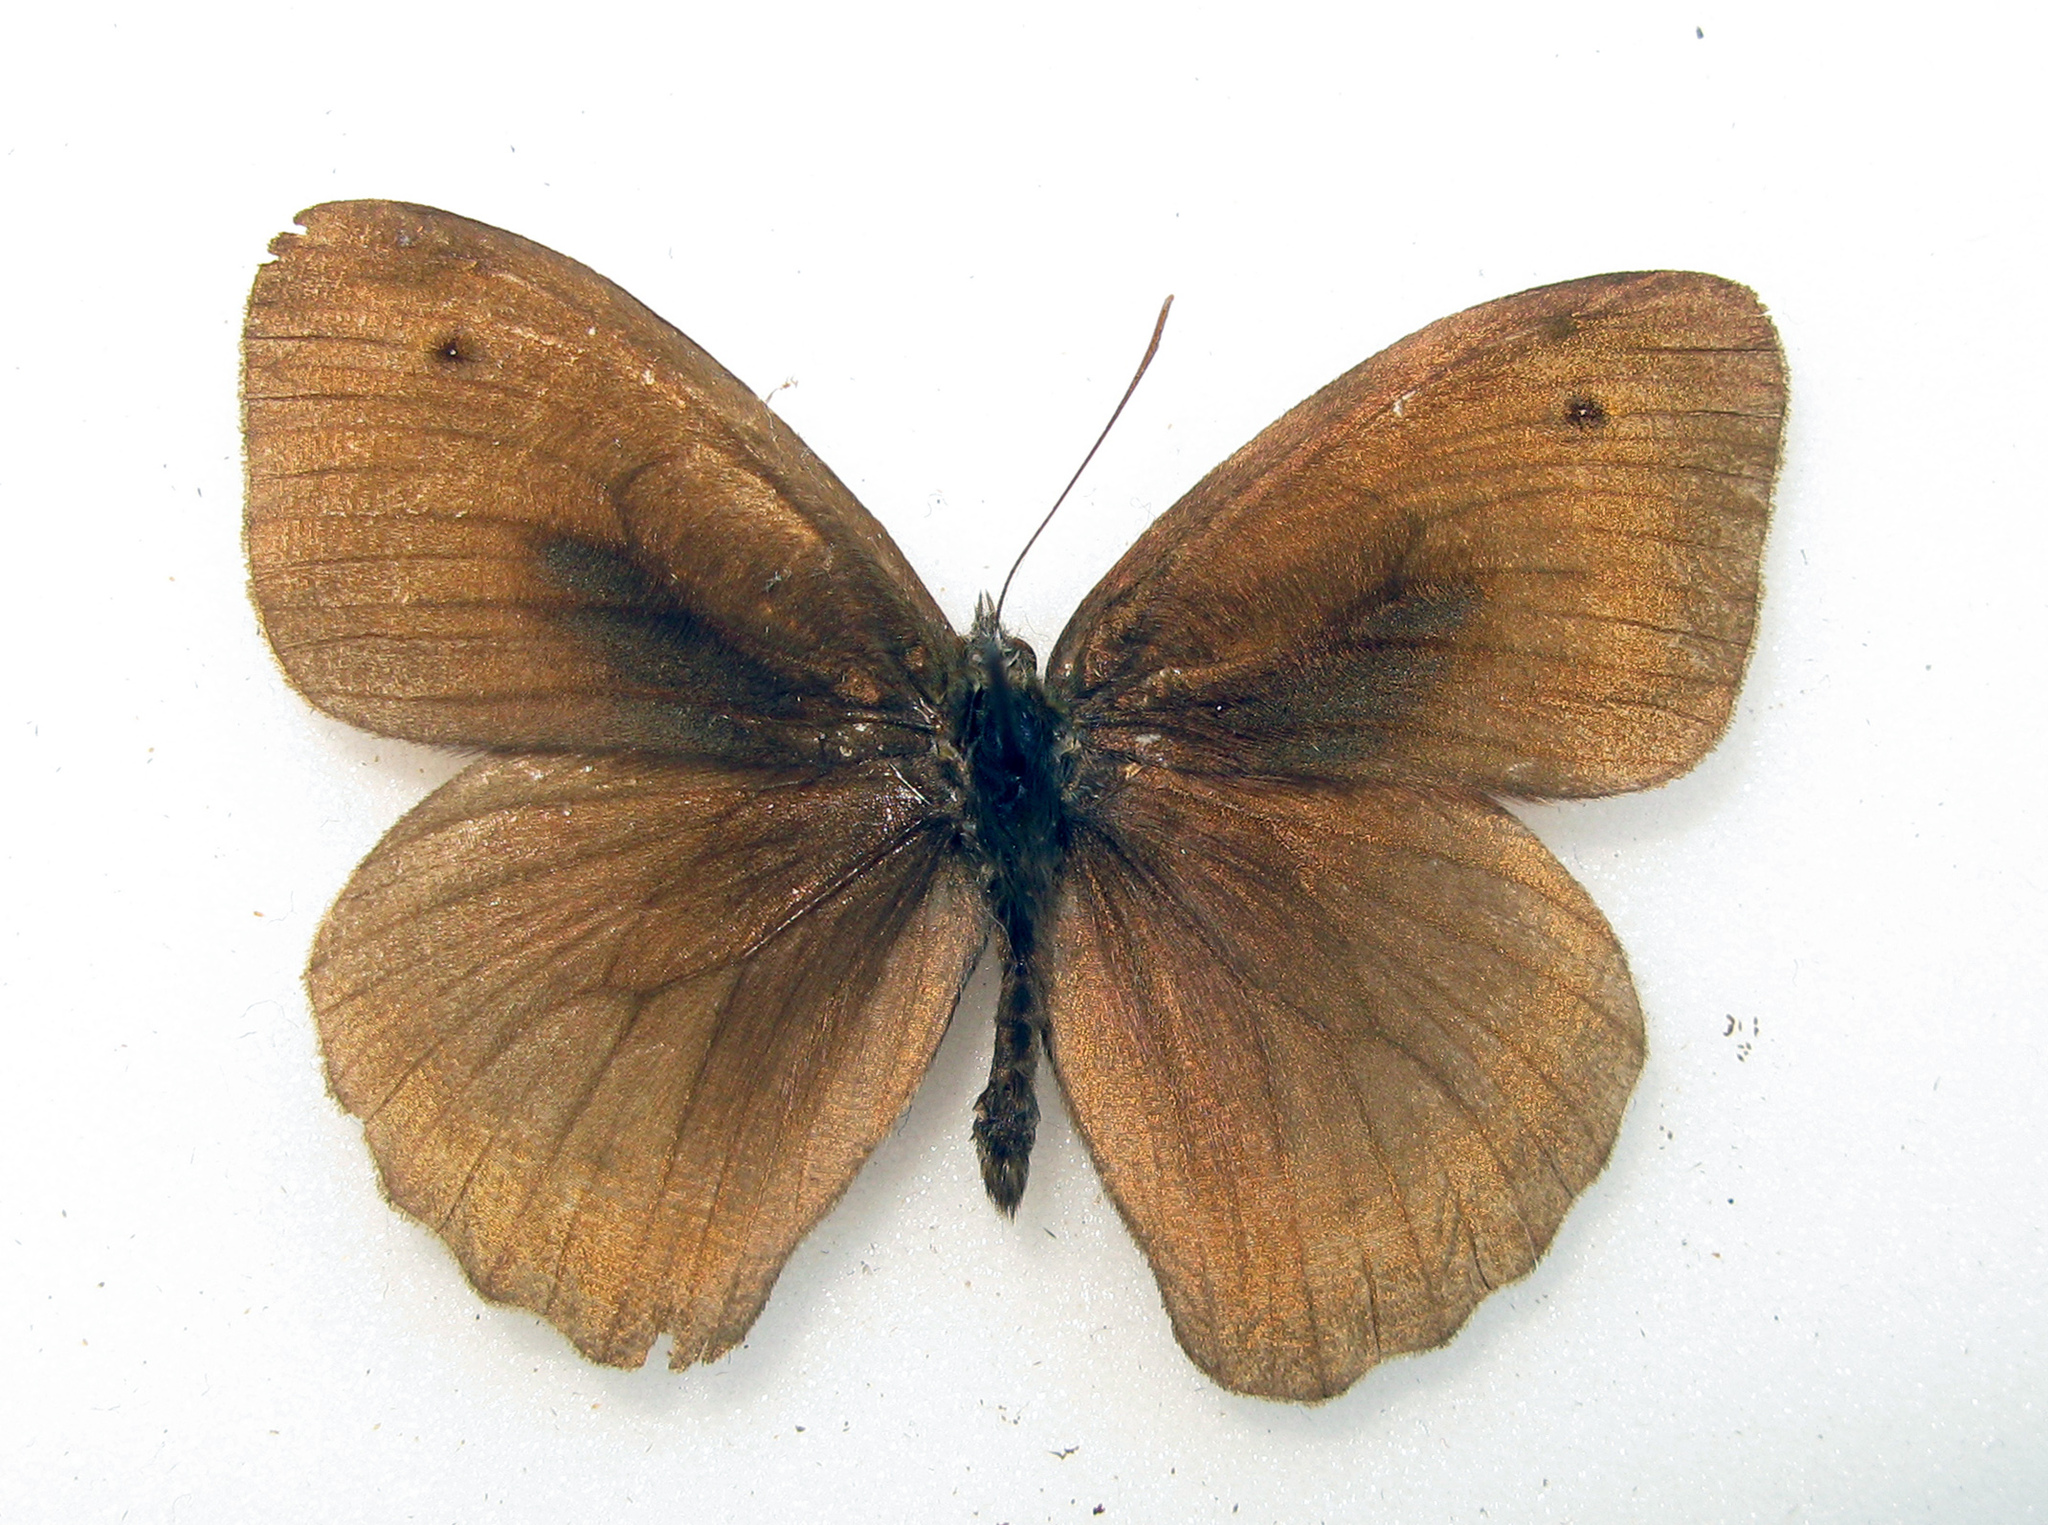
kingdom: Animalia
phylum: Arthropoda
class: Insecta
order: Lepidoptera
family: Nymphalidae
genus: Maniola
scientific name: Maniola jurtina
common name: Meadow brown
